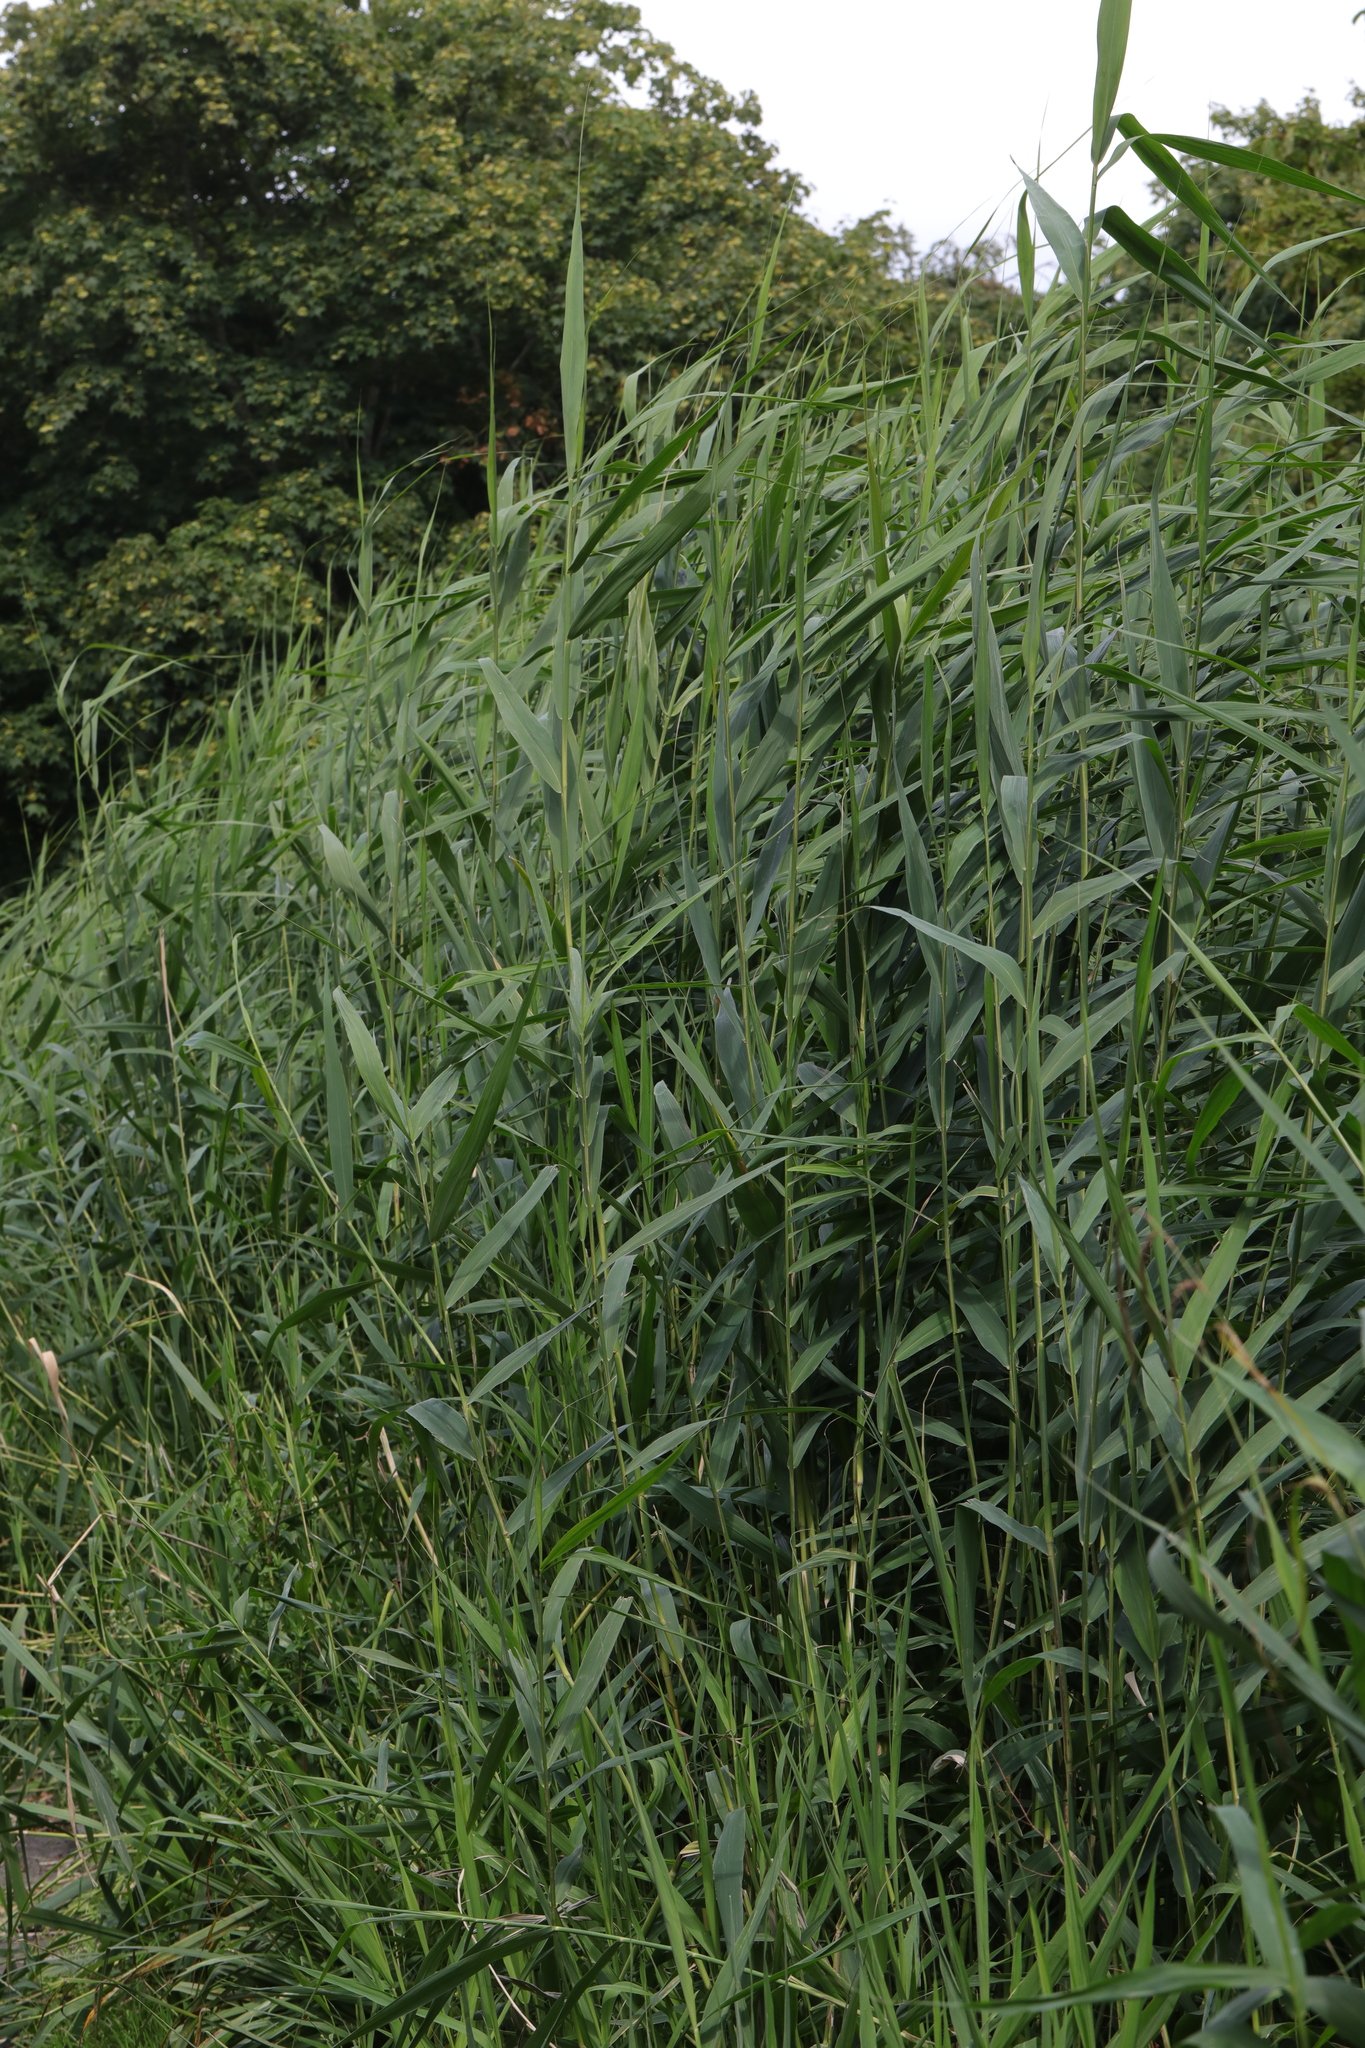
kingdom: Plantae
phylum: Tracheophyta
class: Liliopsida
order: Poales
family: Poaceae
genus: Phragmites
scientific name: Phragmites australis
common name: Common reed
